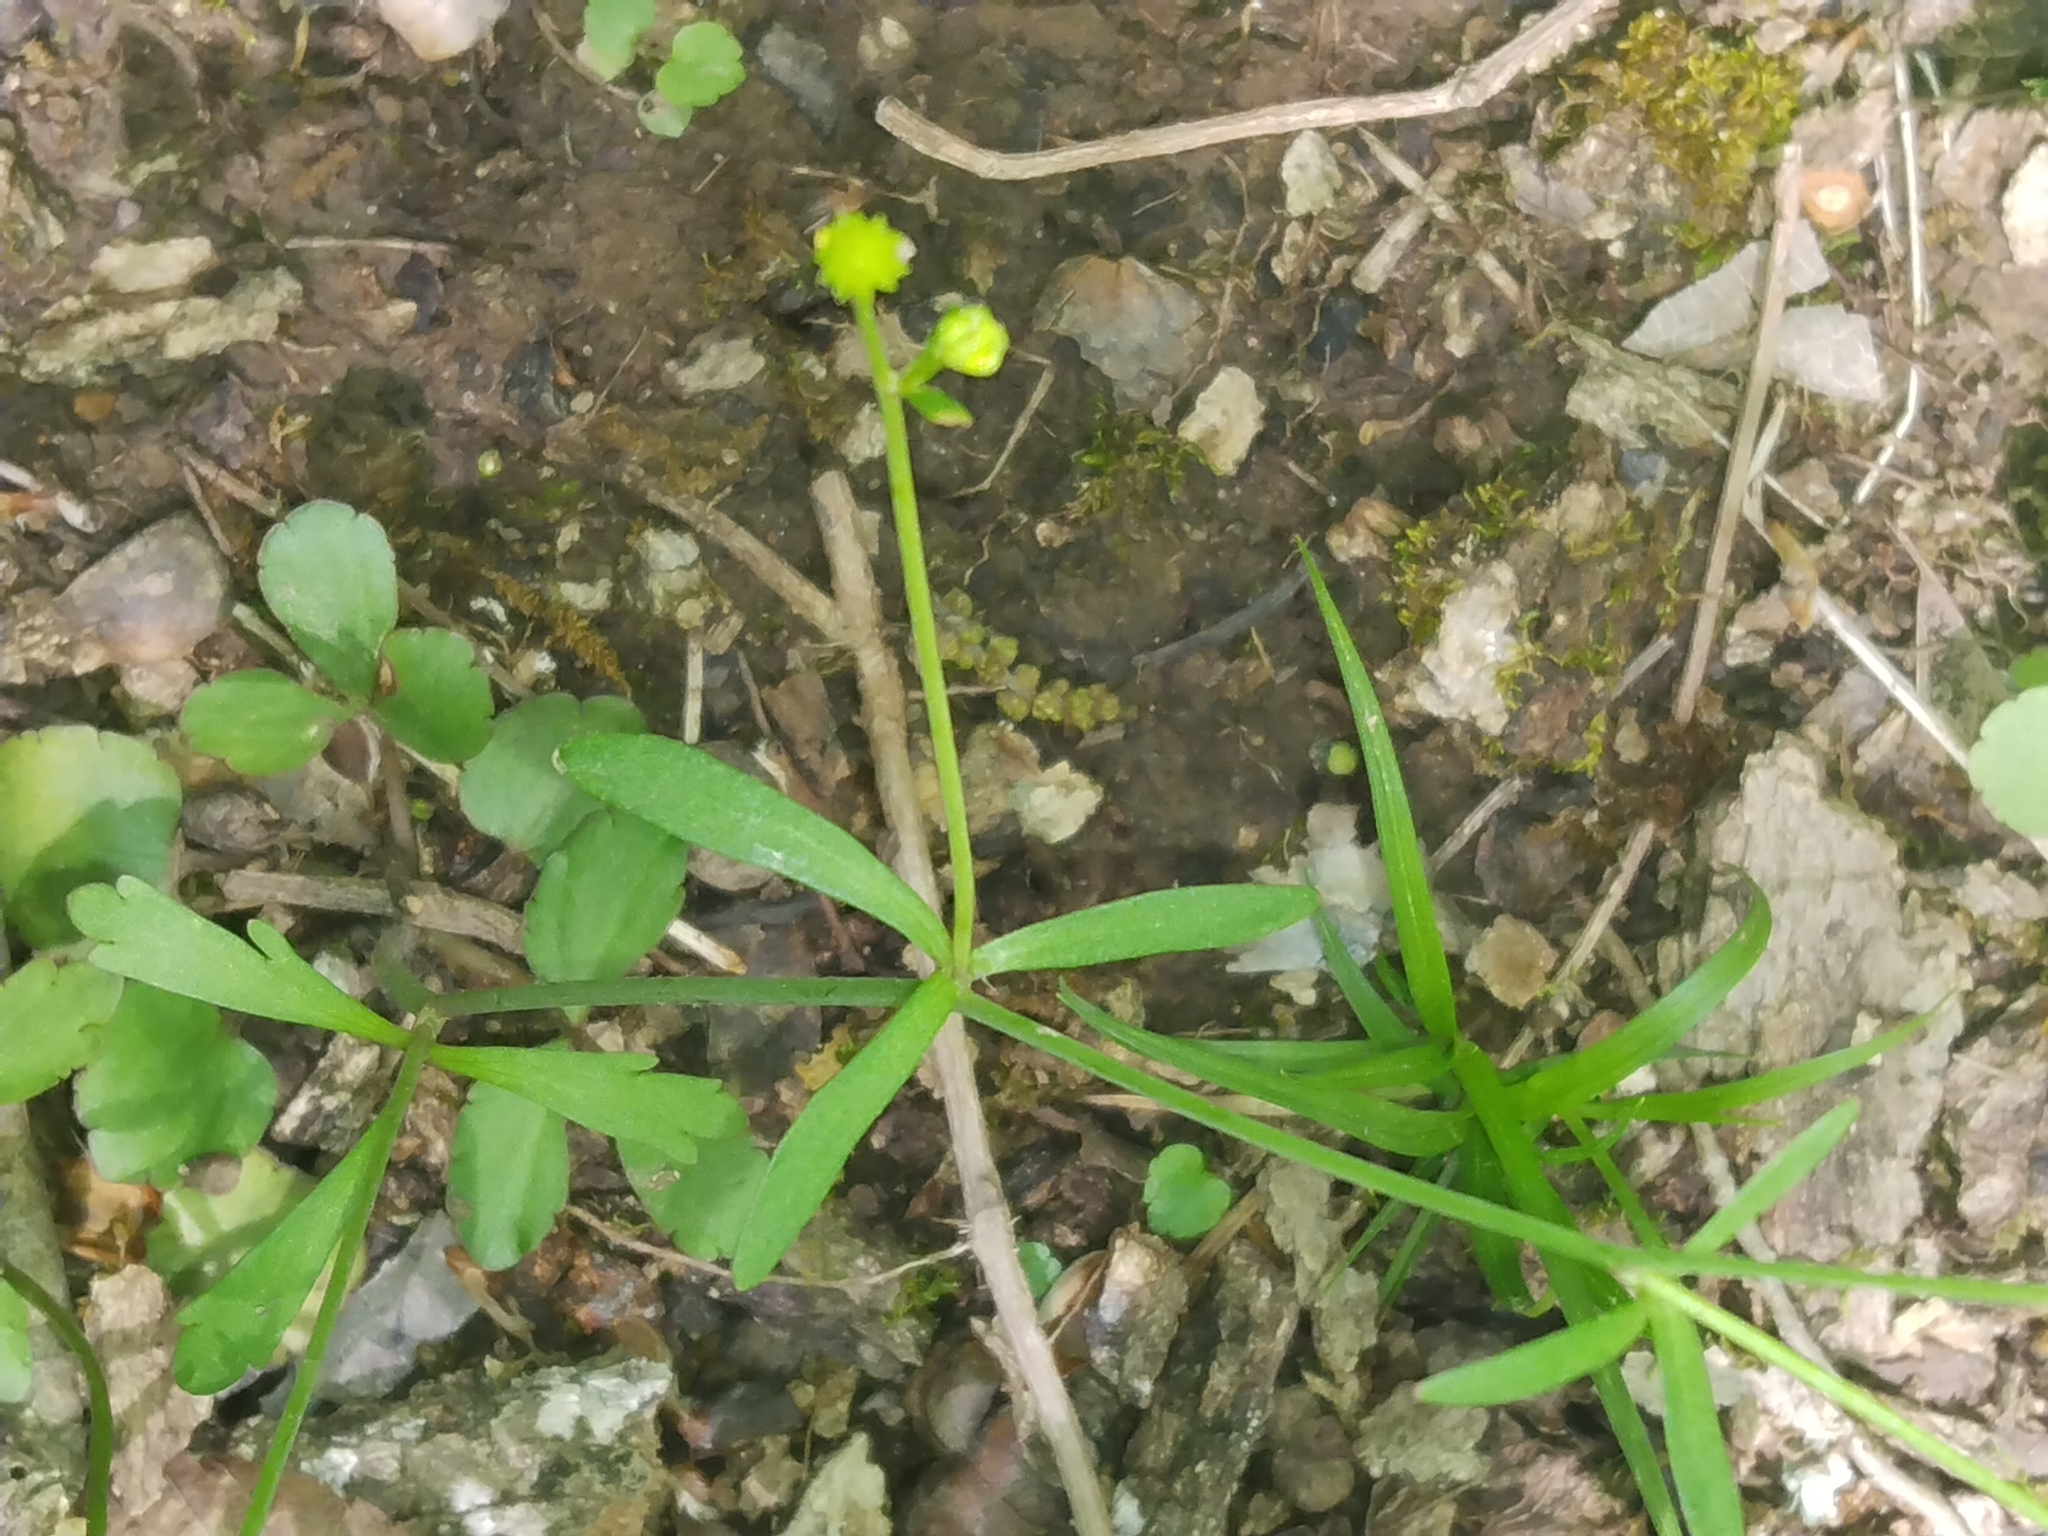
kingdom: Plantae
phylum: Tracheophyta
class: Magnoliopsida
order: Ranunculales
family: Ranunculaceae
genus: Ranunculus
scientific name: Ranunculus micranthus
